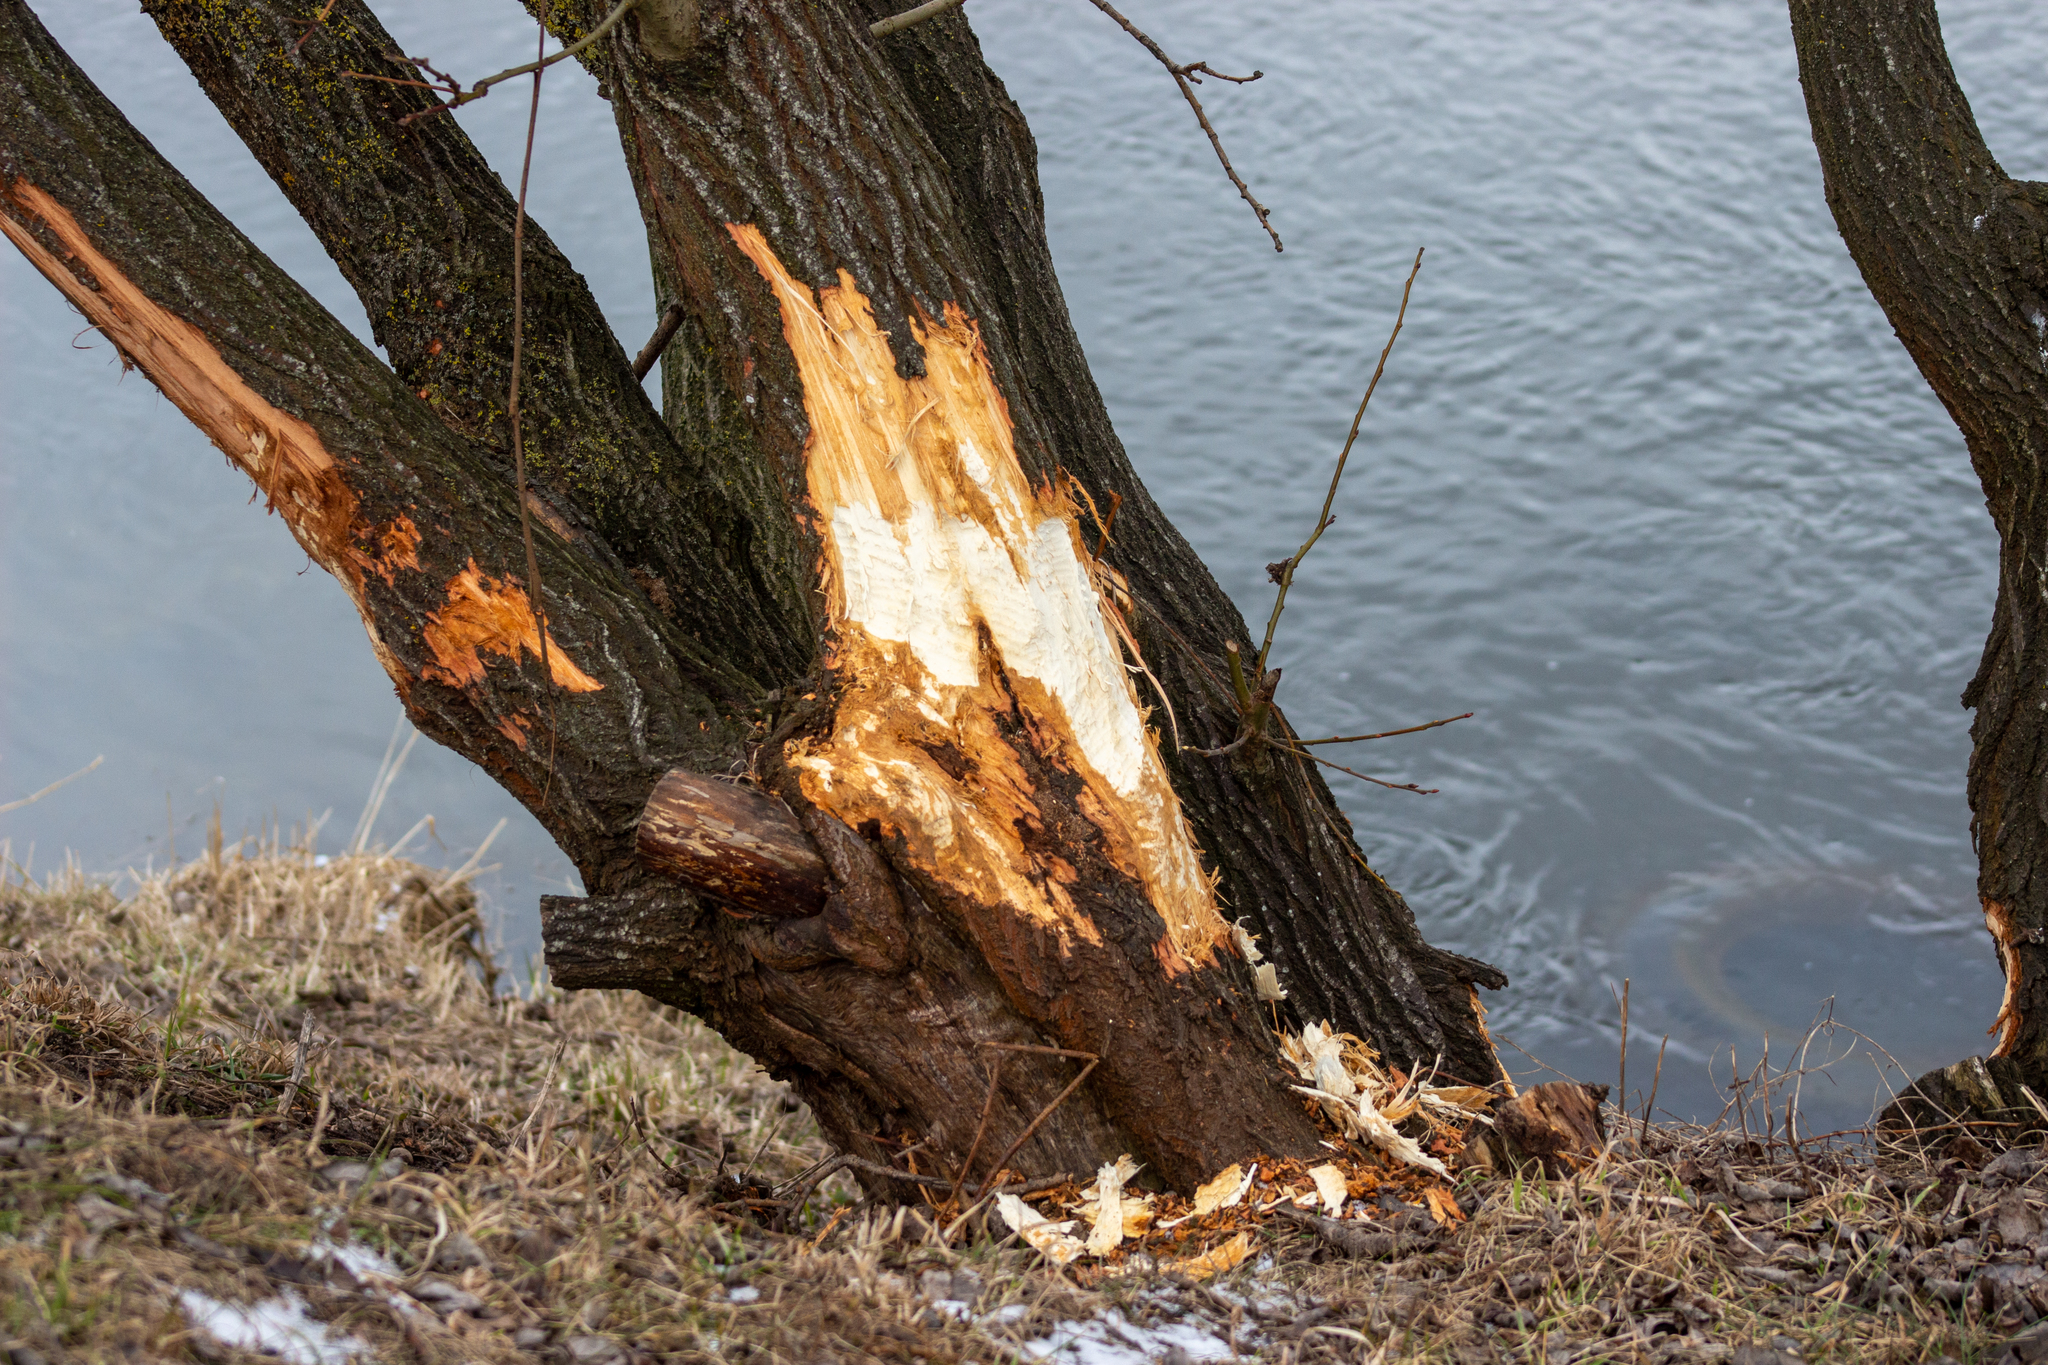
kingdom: Animalia
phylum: Chordata
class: Mammalia
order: Rodentia
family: Castoridae
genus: Castor
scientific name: Castor fiber
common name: Eurasian beaver
